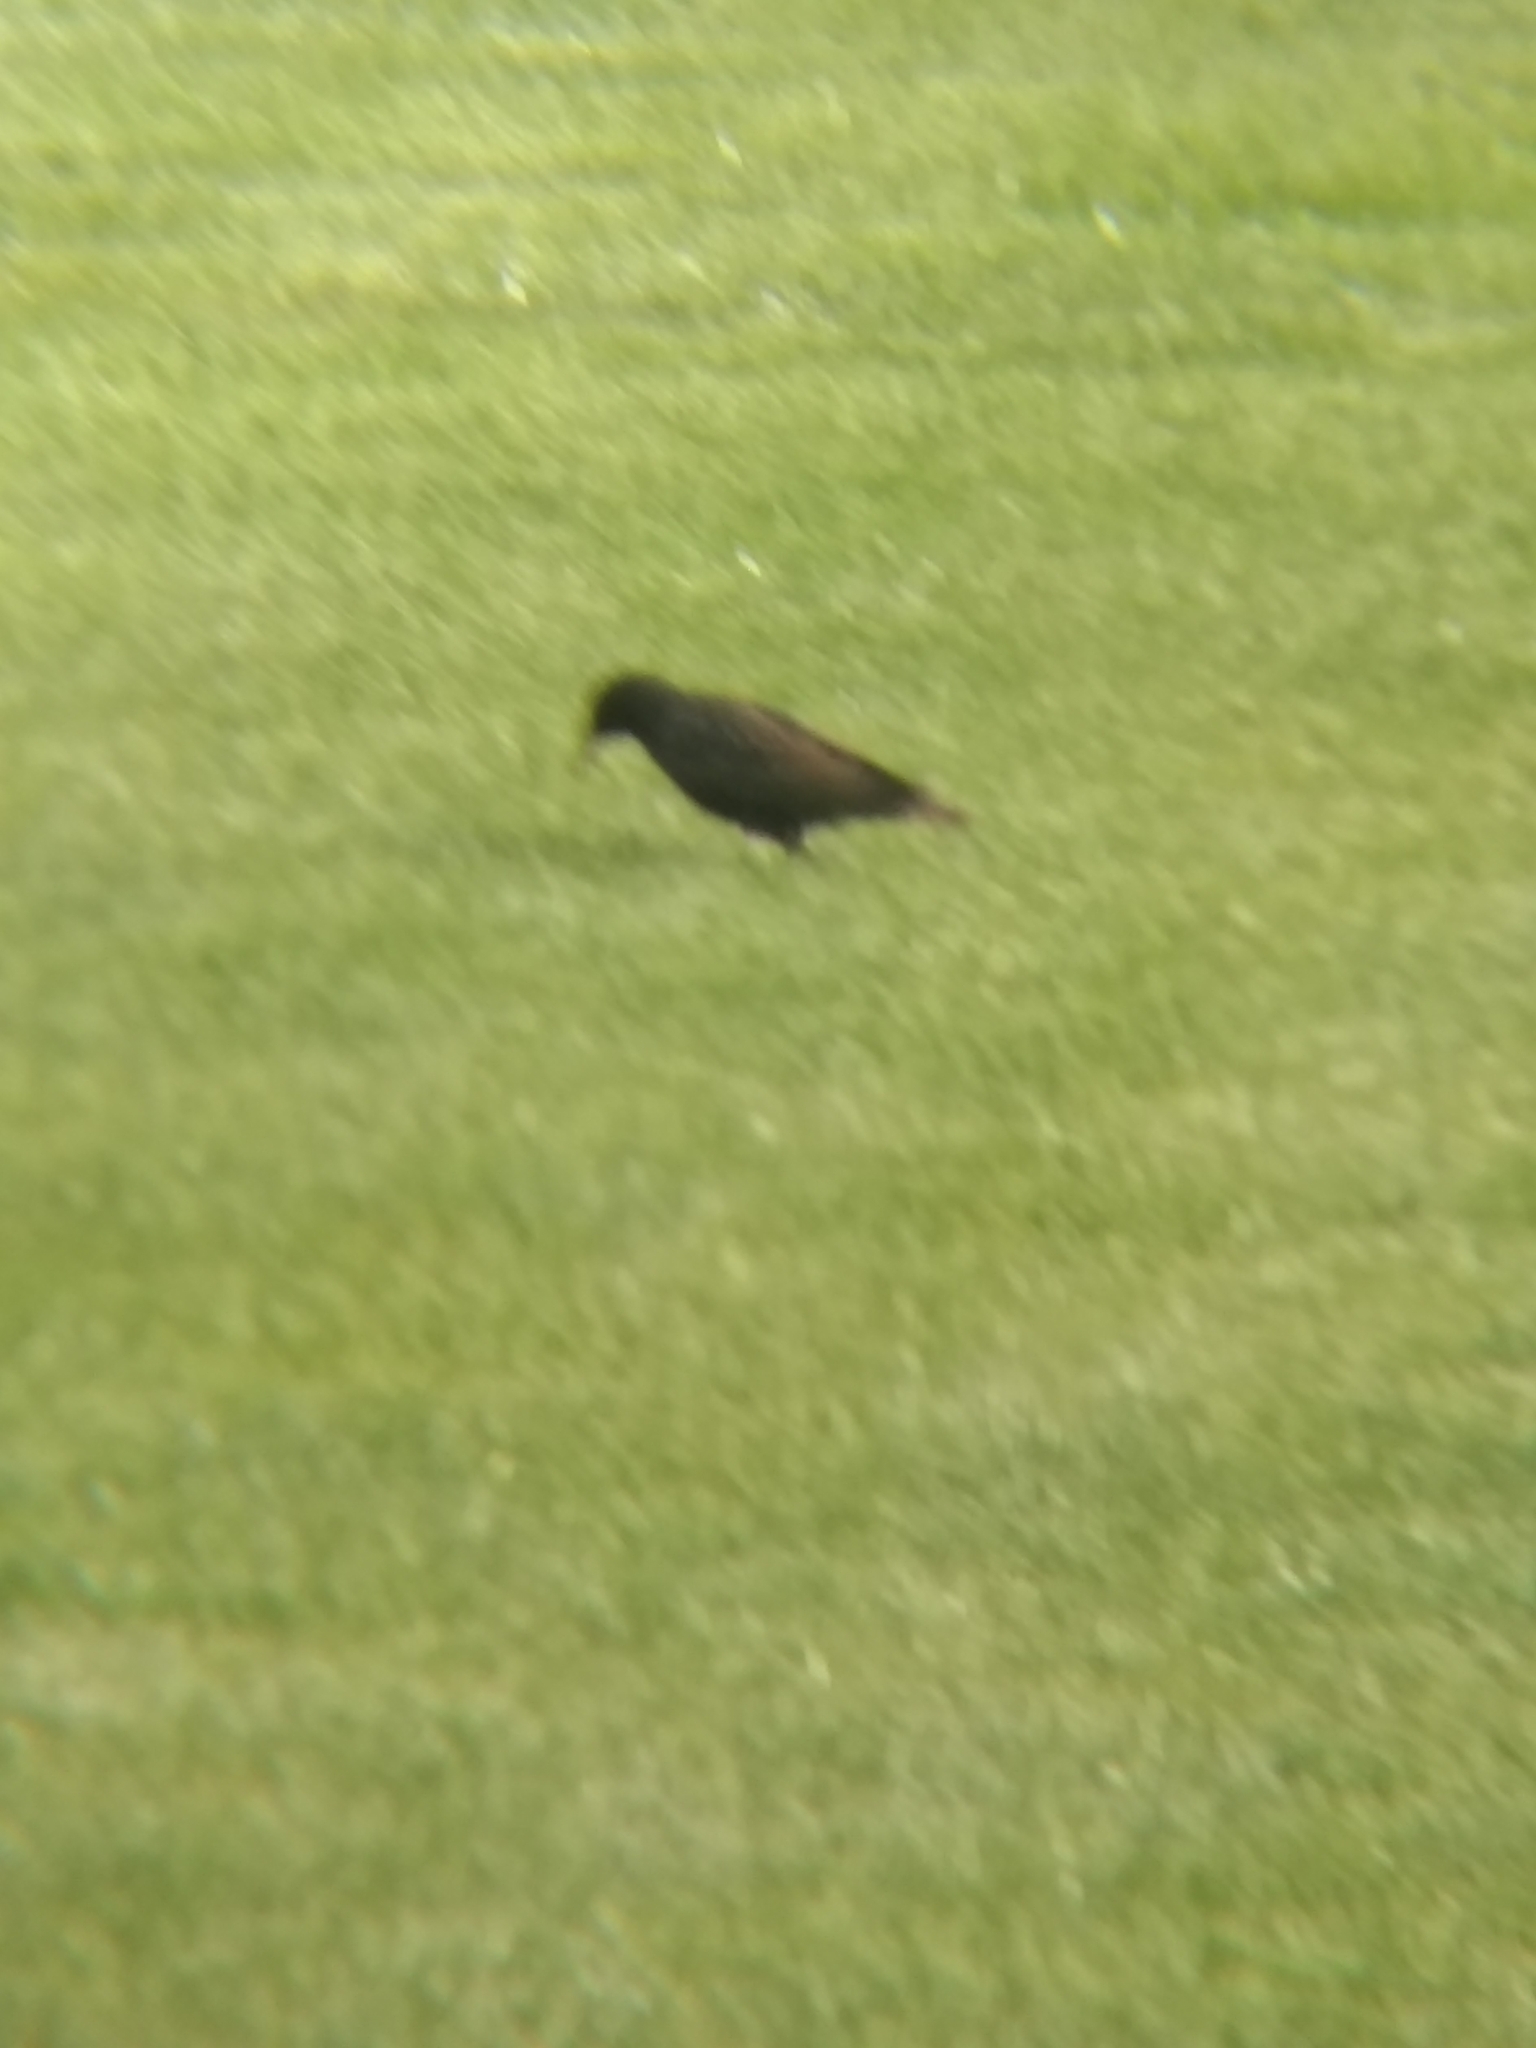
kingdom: Animalia
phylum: Chordata
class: Aves
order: Passeriformes
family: Sturnidae
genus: Sturnus
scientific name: Sturnus vulgaris
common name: Common starling
